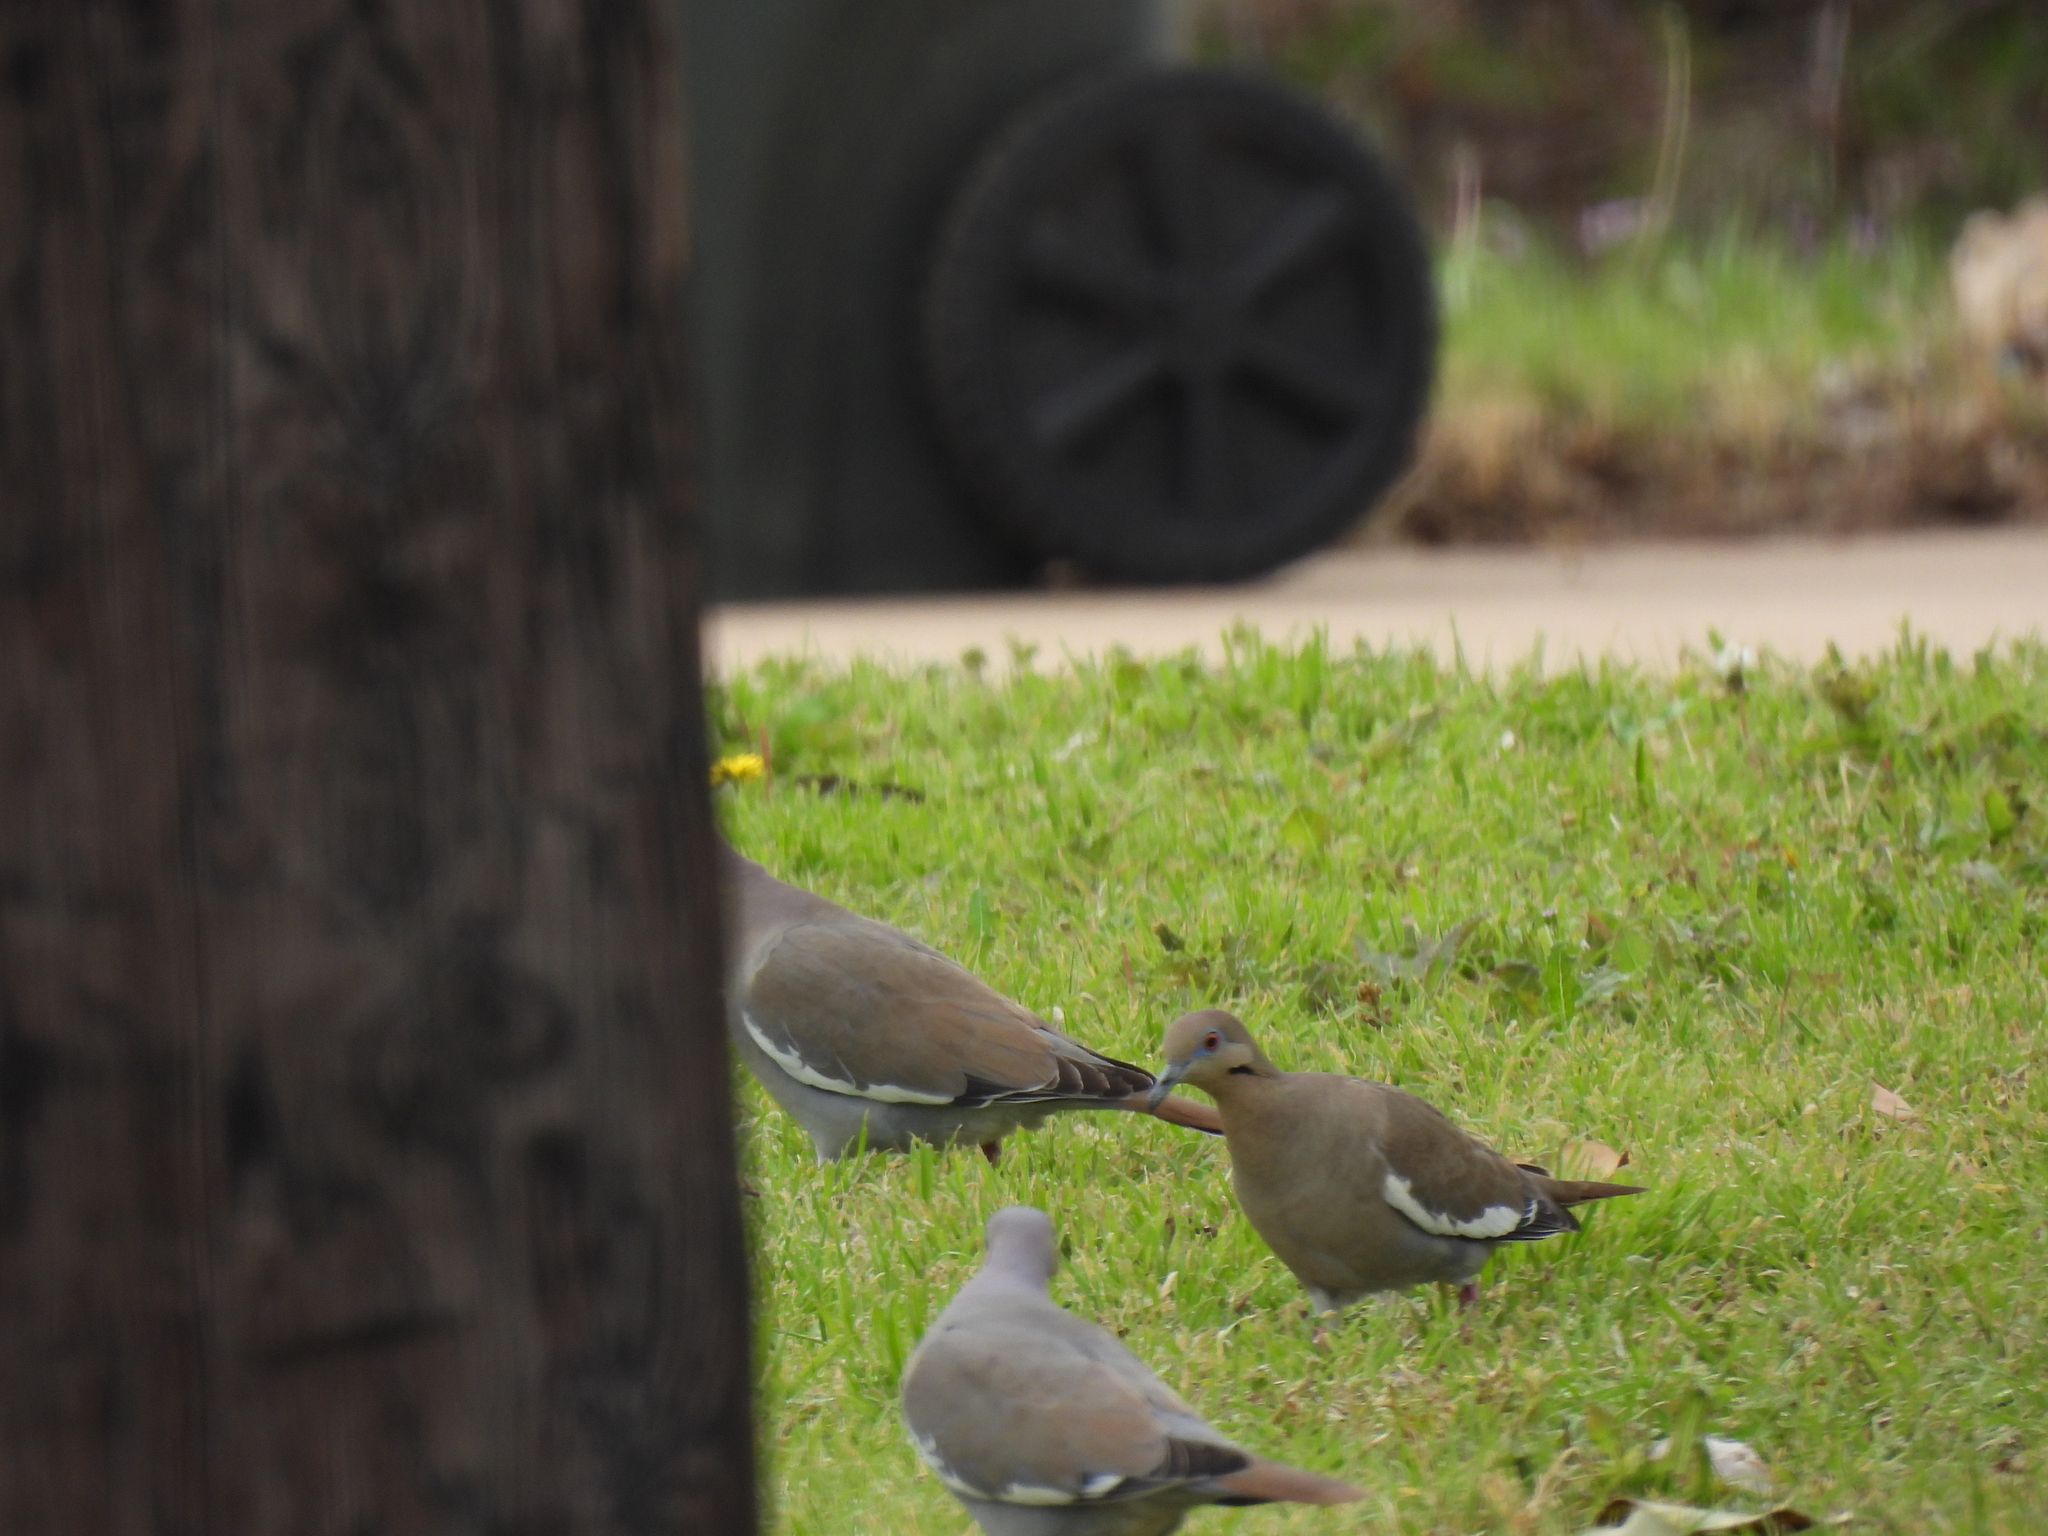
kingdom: Animalia
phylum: Chordata
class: Aves
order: Columbiformes
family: Columbidae
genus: Zenaida
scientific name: Zenaida asiatica
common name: White-winged dove
